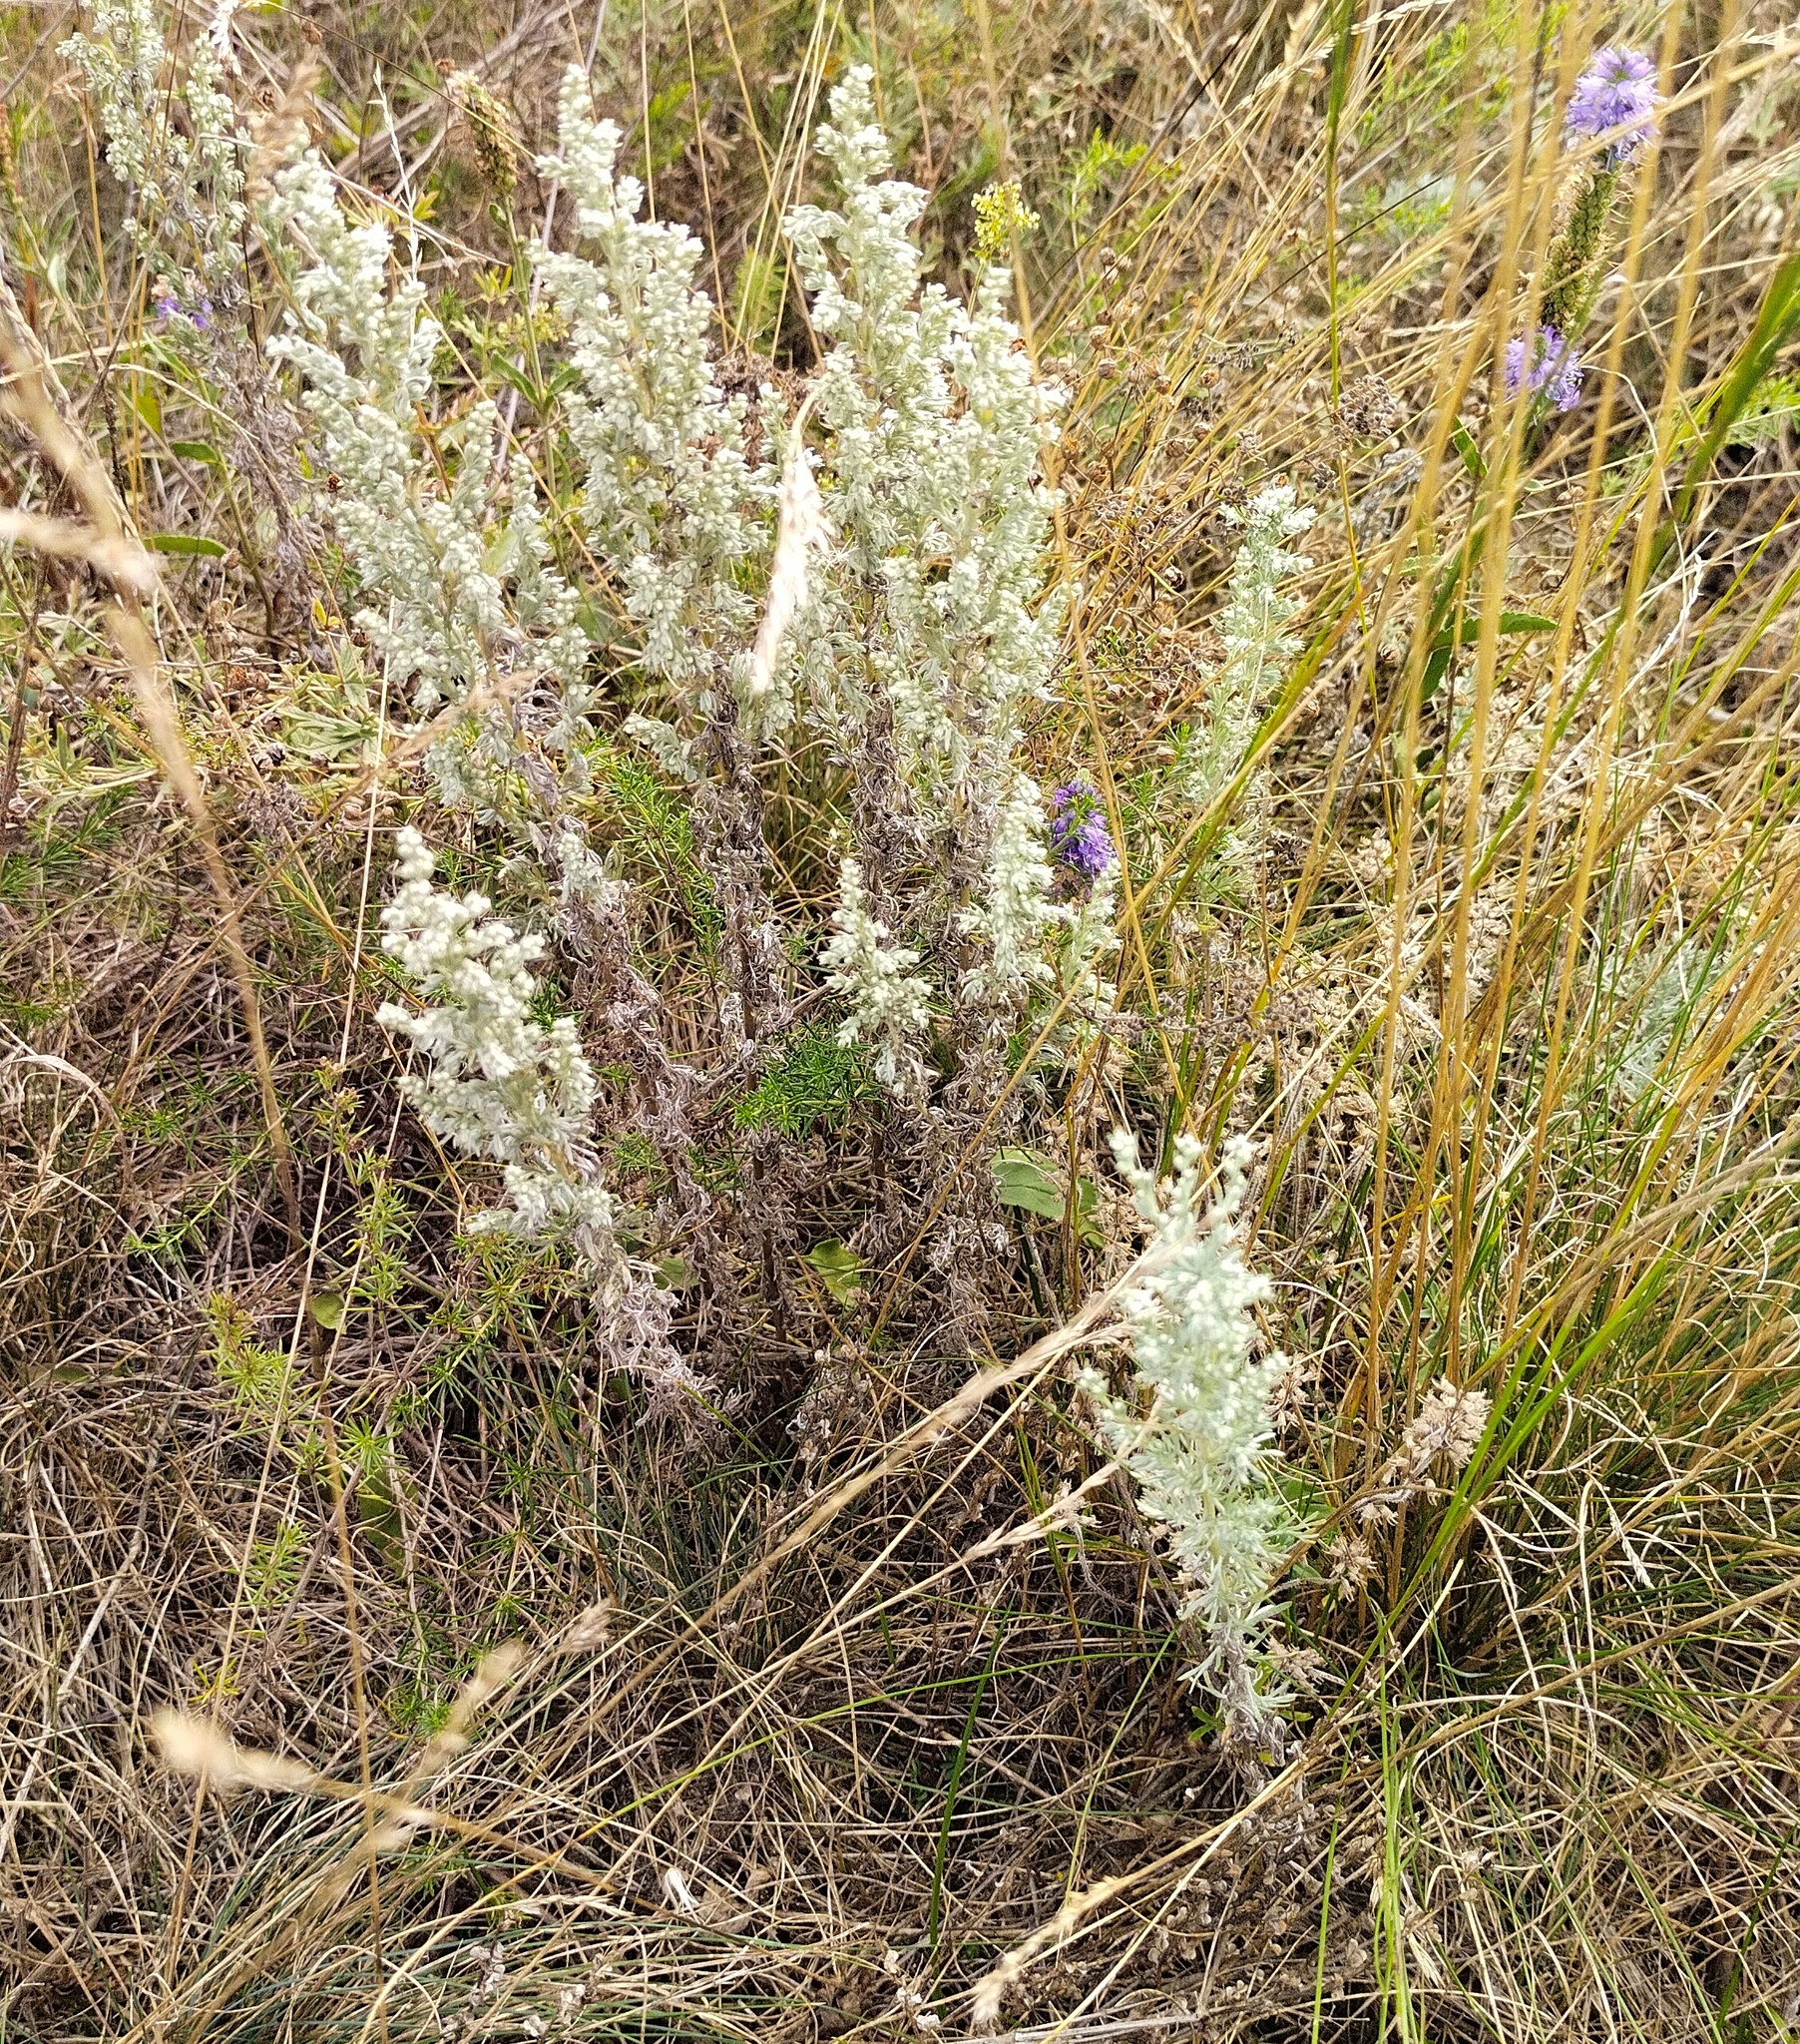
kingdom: Plantae
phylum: Tracheophyta
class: Magnoliopsida
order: Asterales
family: Asteraceae
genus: Artemisia
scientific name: Artemisia austriaca
